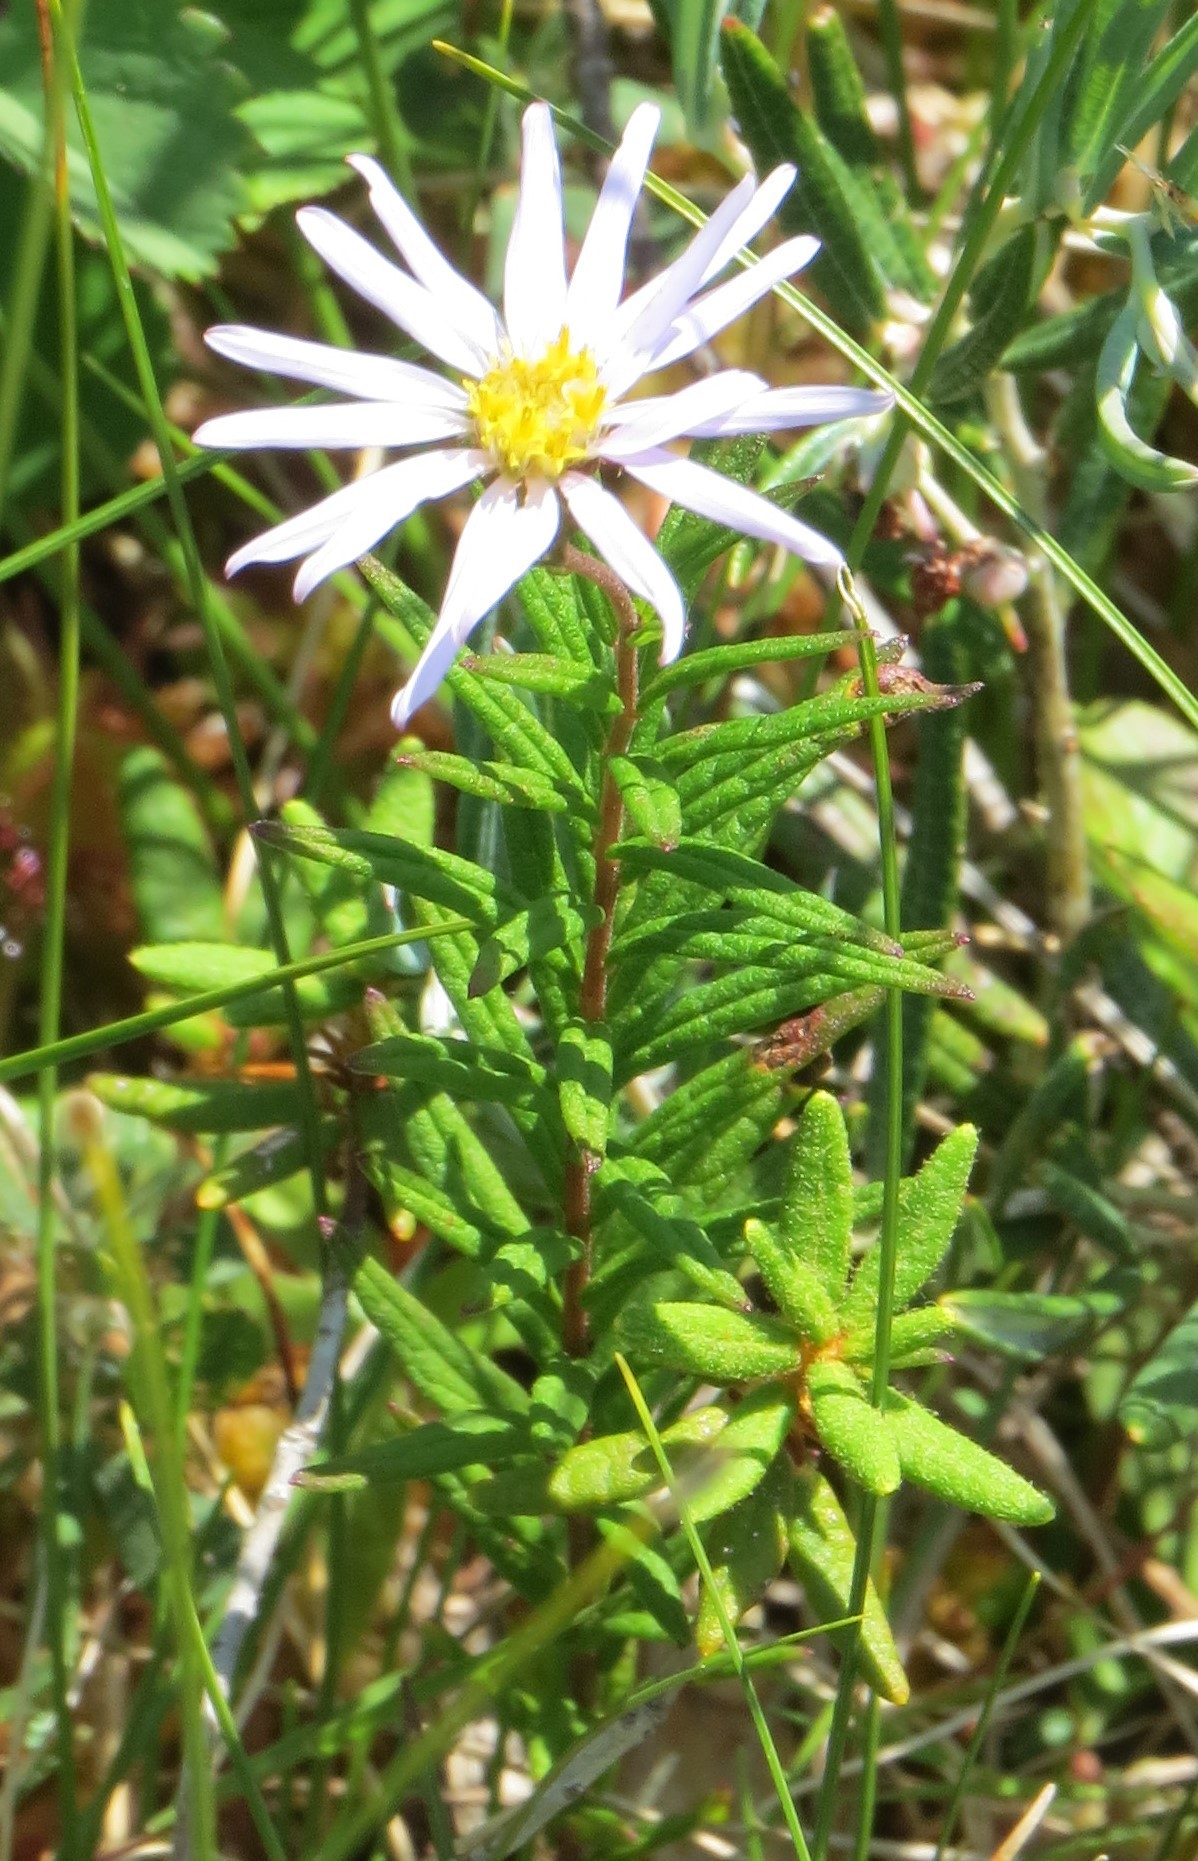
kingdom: Plantae
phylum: Tracheophyta
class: Magnoliopsida
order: Asterales
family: Asteraceae
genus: Oclemena
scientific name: Oclemena nemoralis
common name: Bog aster
